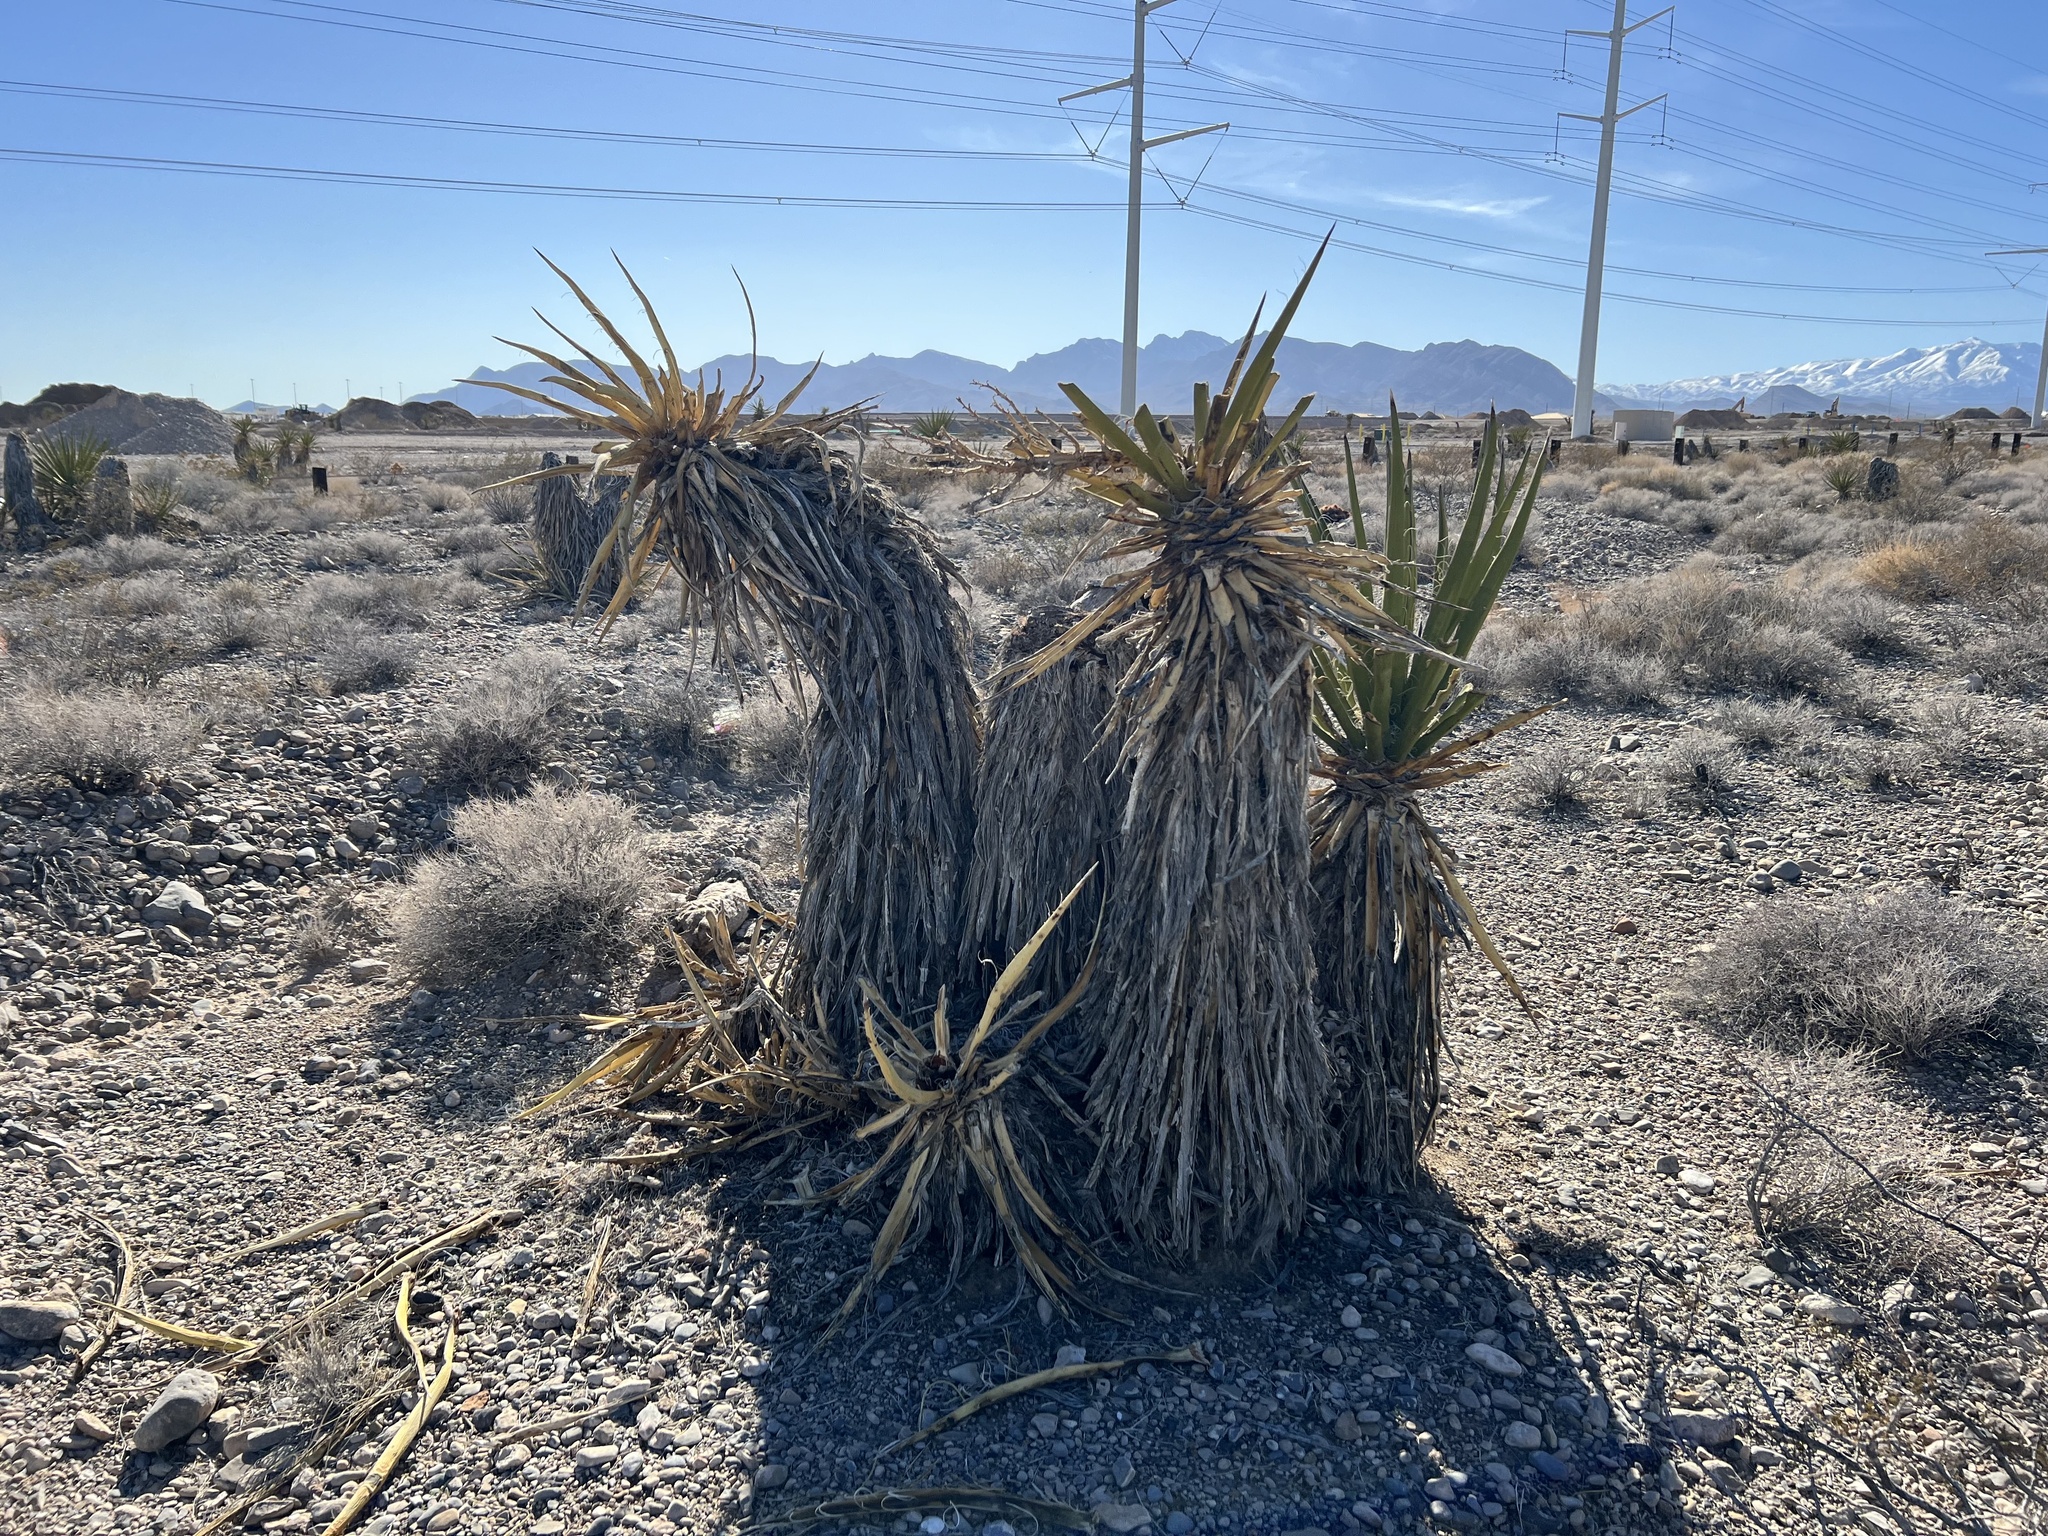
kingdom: Plantae
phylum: Tracheophyta
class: Liliopsida
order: Asparagales
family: Asparagaceae
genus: Yucca
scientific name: Yucca schidigera
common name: Mojave yucca
